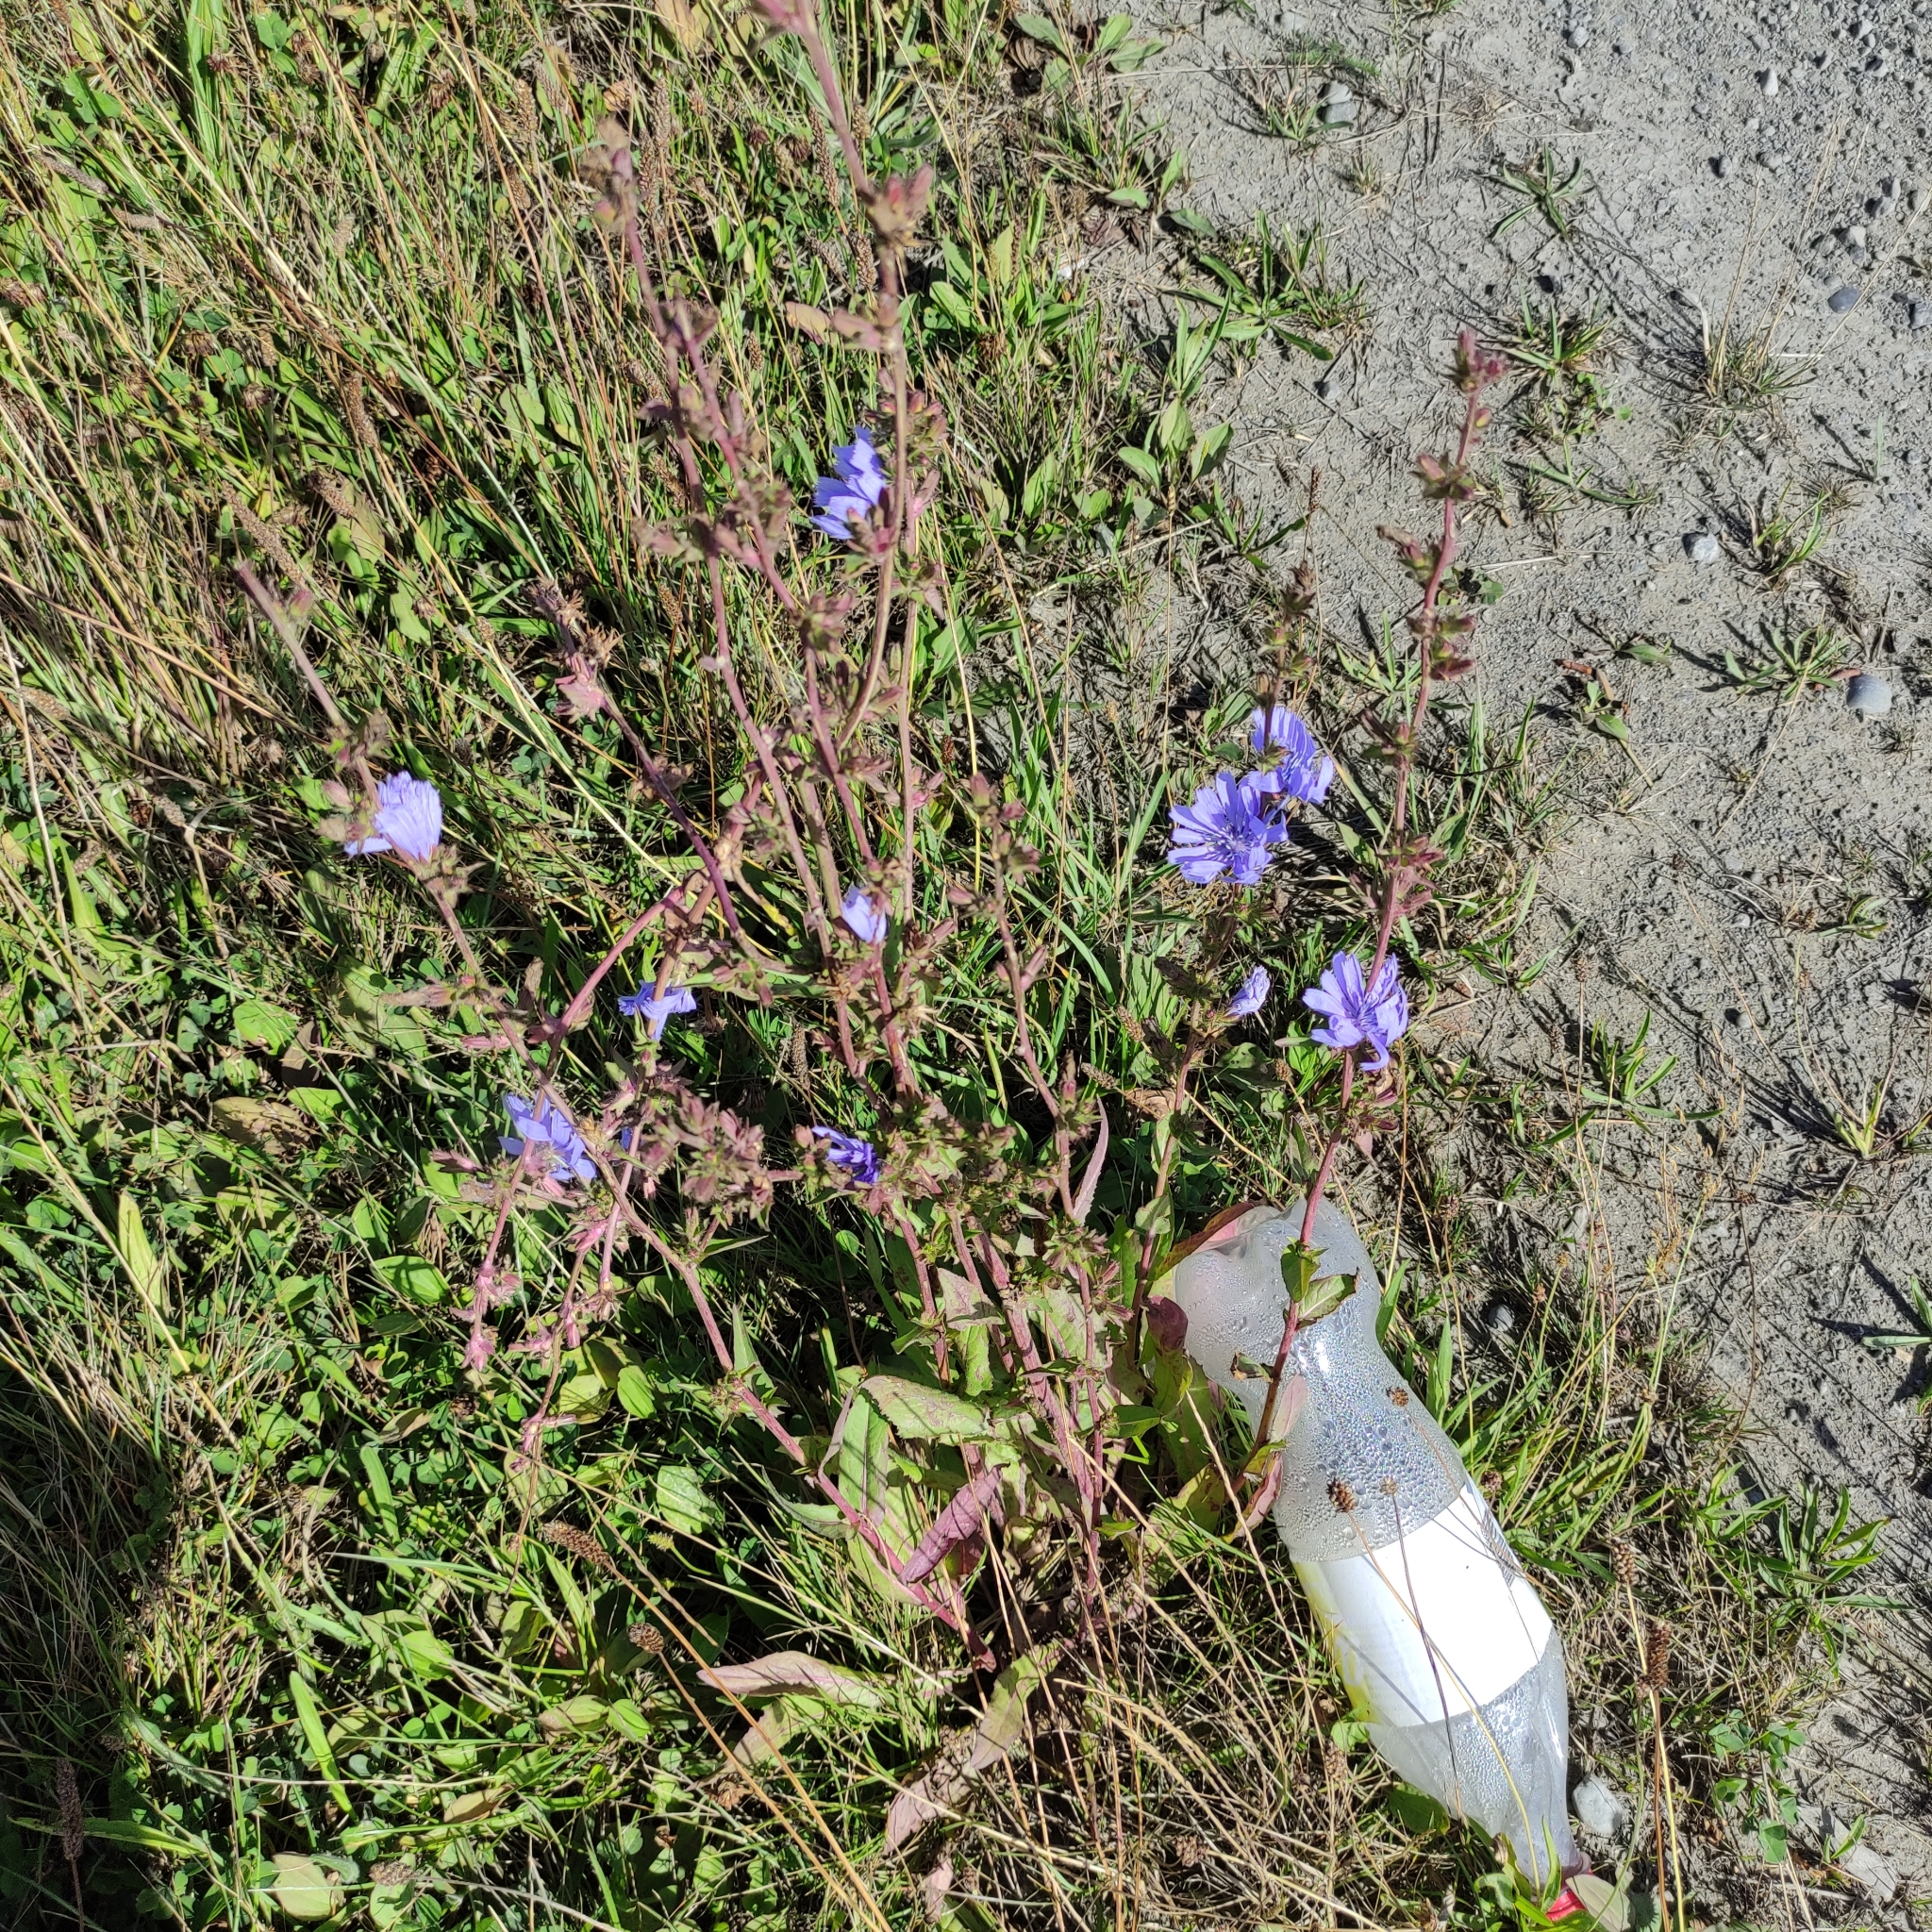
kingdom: Plantae
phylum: Tracheophyta
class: Magnoliopsida
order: Asterales
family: Asteraceae
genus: Cichorium
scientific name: Cichorium intybus
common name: Chicory
